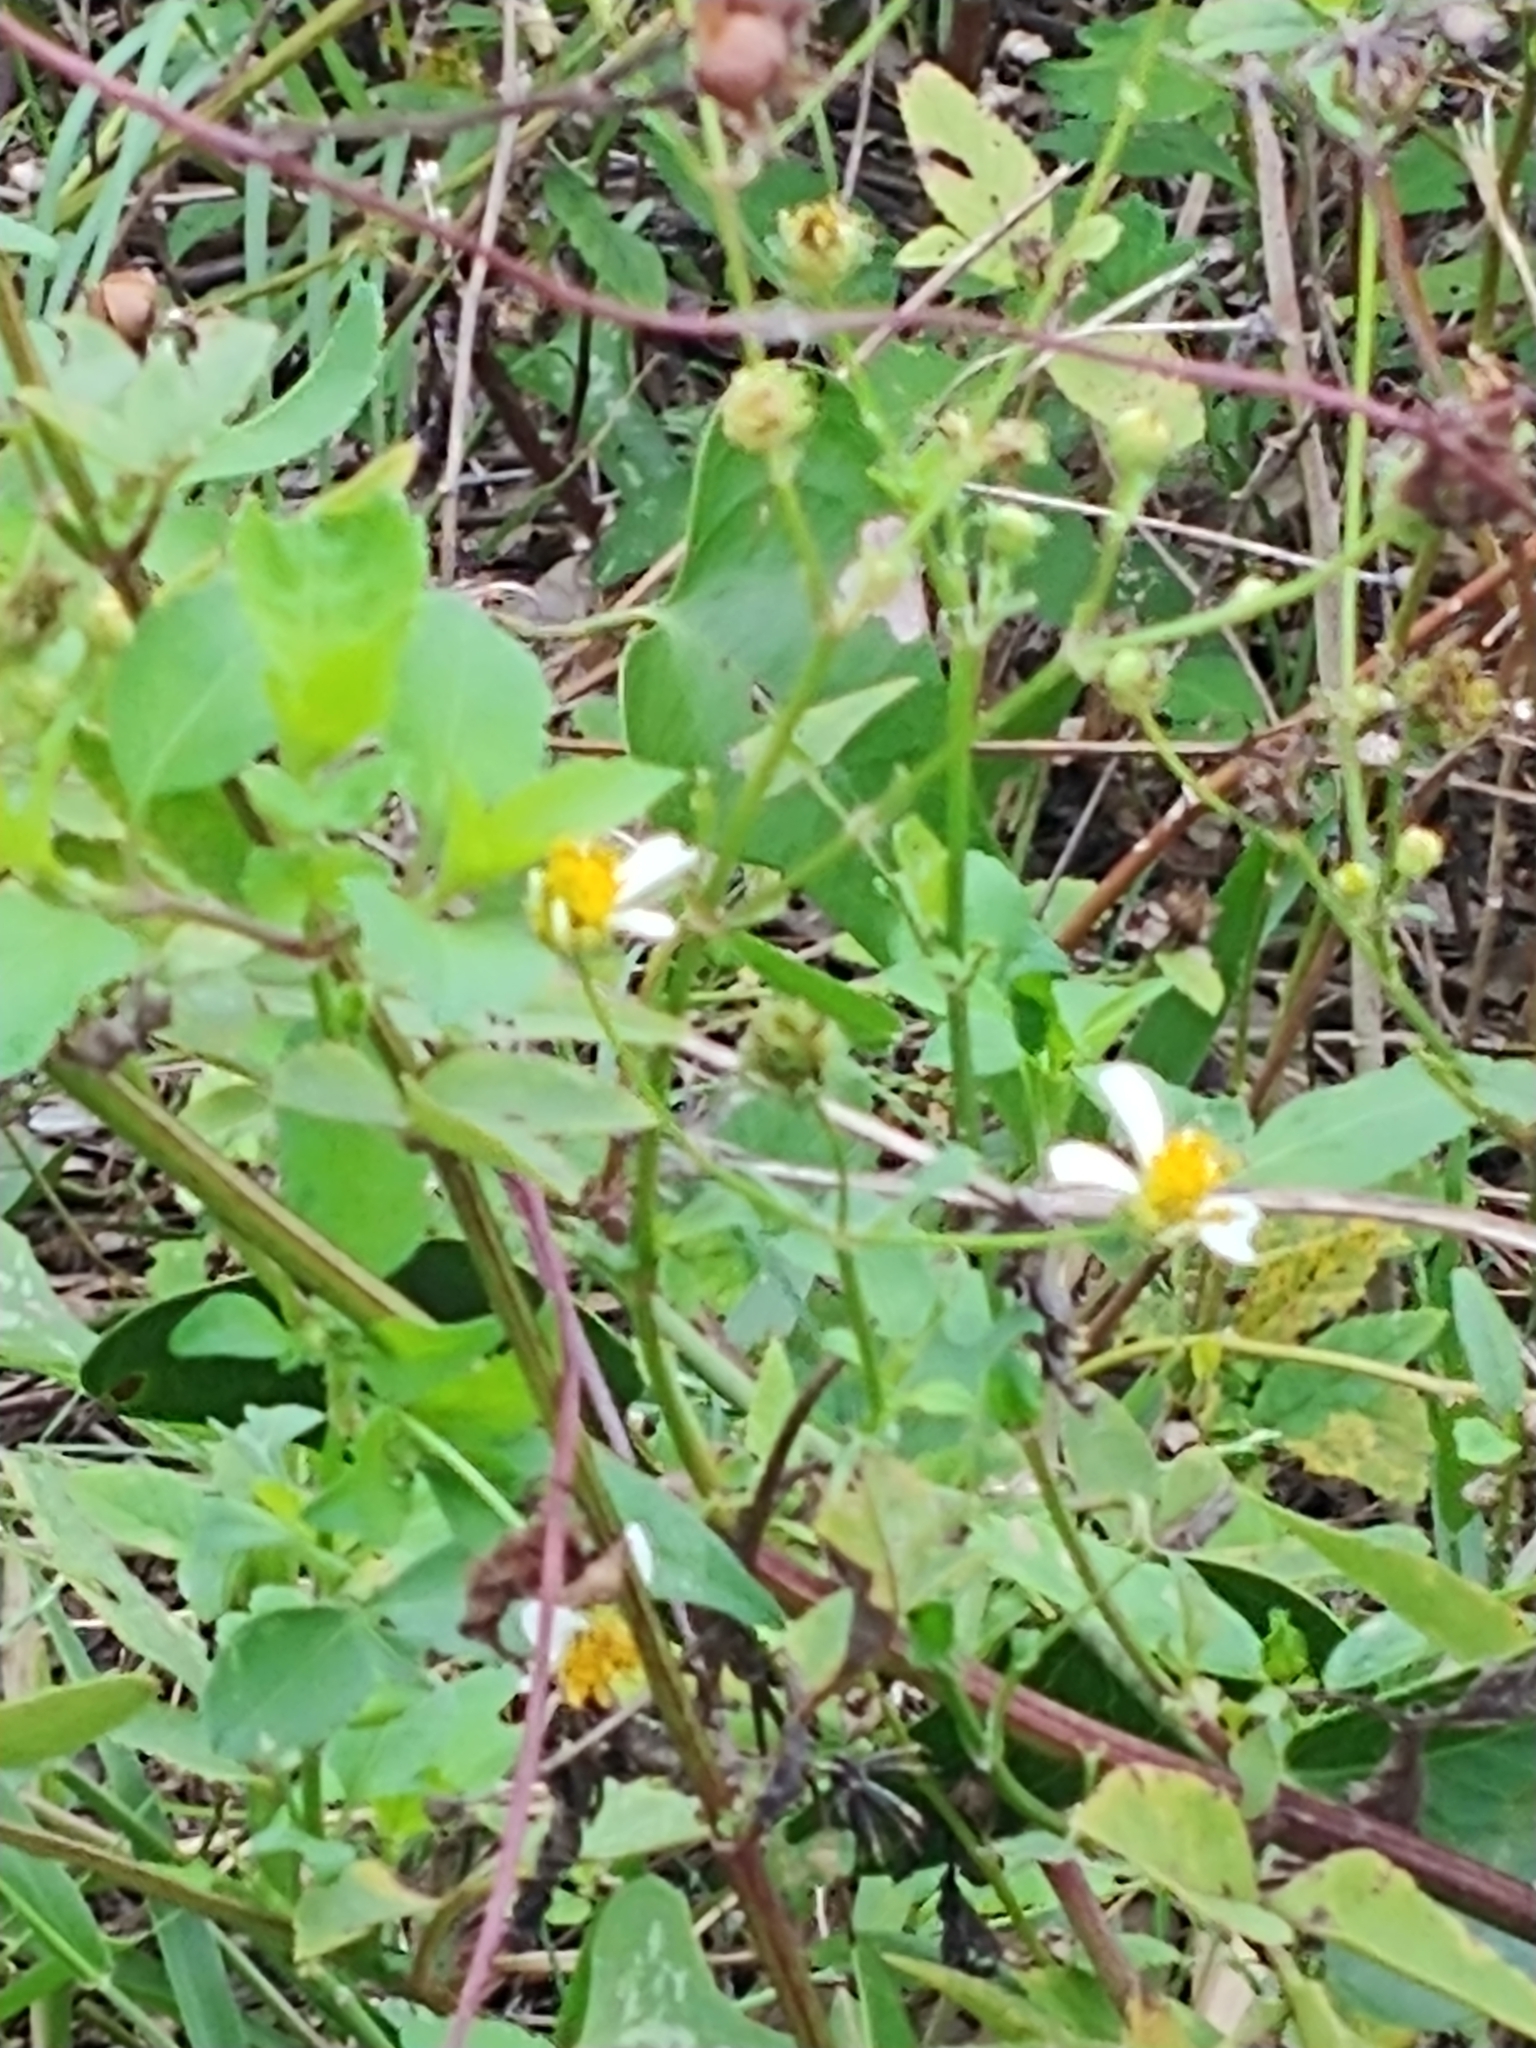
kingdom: Plantae
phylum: Tracheophyta
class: Magnoliopsida
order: Asterales
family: Asteraceae
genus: Bidens
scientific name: Bidens alba
